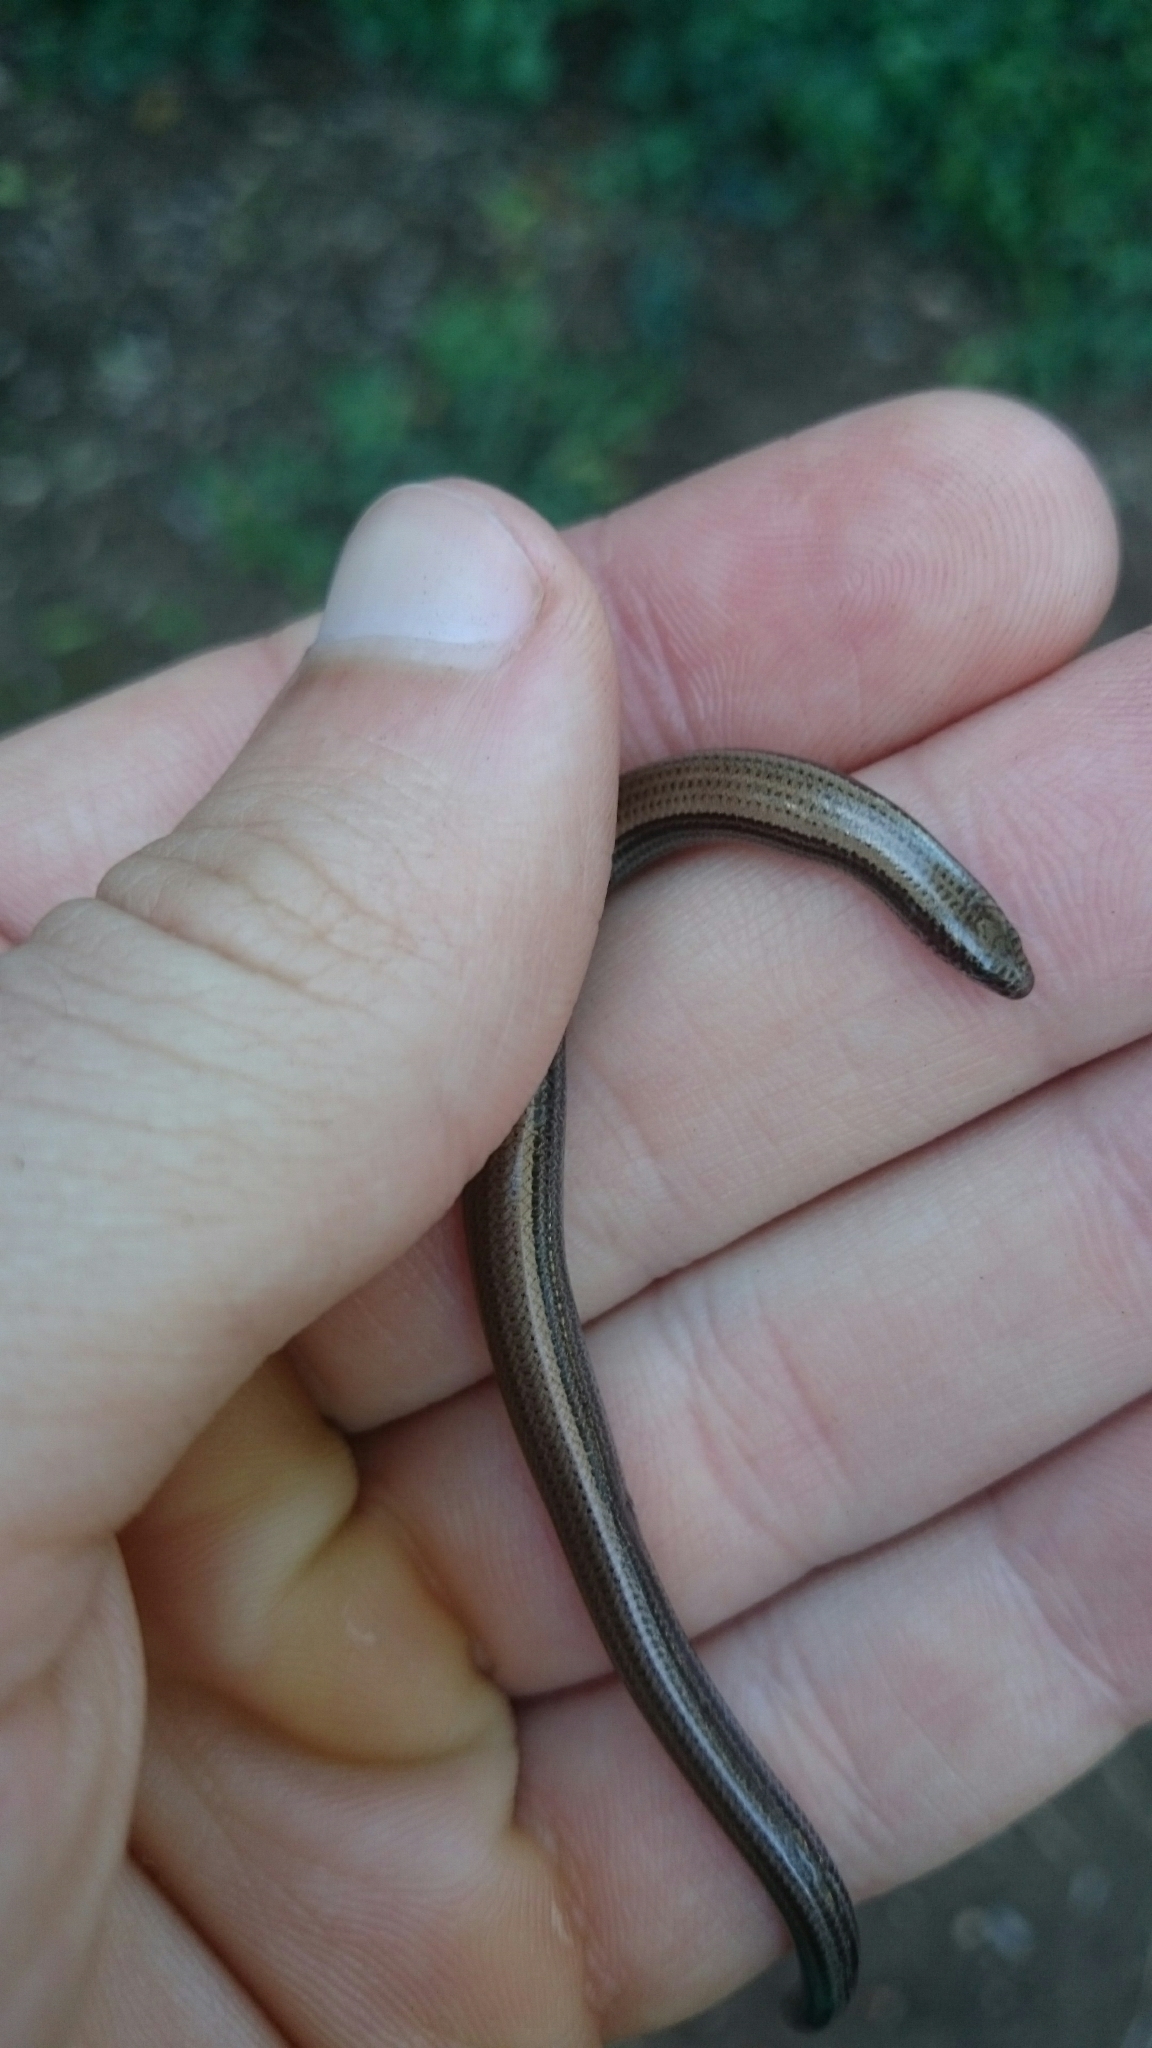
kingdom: Animalia
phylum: Chordata
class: Squamata
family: Scincidae
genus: Scelotes
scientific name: Scelotes mossambicus
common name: Mozambique dwarf burrowing skink
